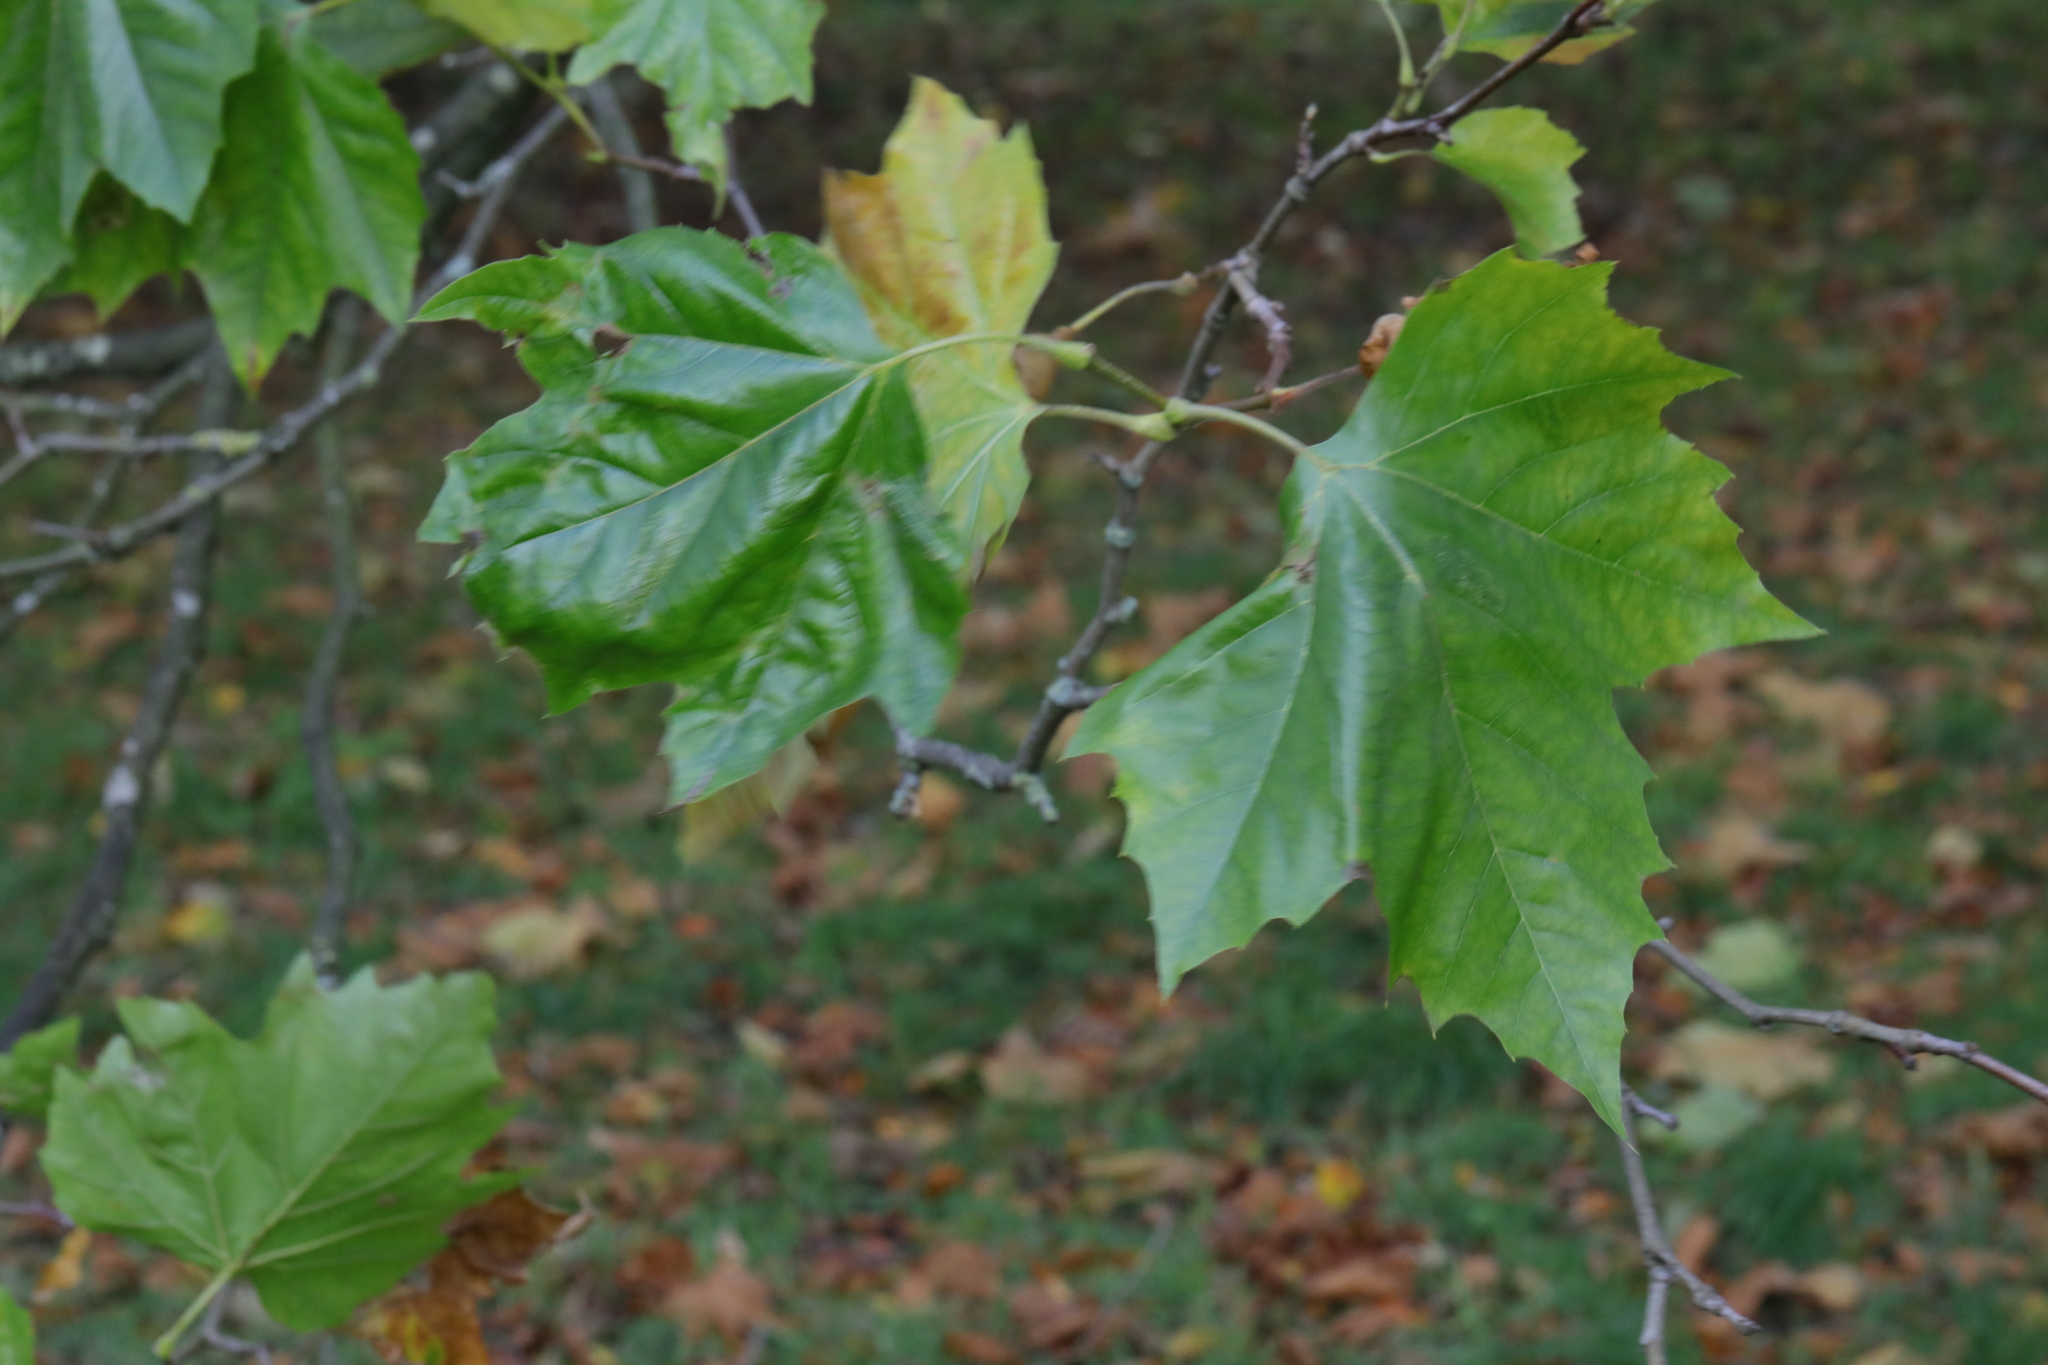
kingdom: Plantae
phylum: Tracheophyta
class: Magnoliopsida
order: Proteales
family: Platanaceae
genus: Platanus
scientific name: Platanus hispanica
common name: London plane
